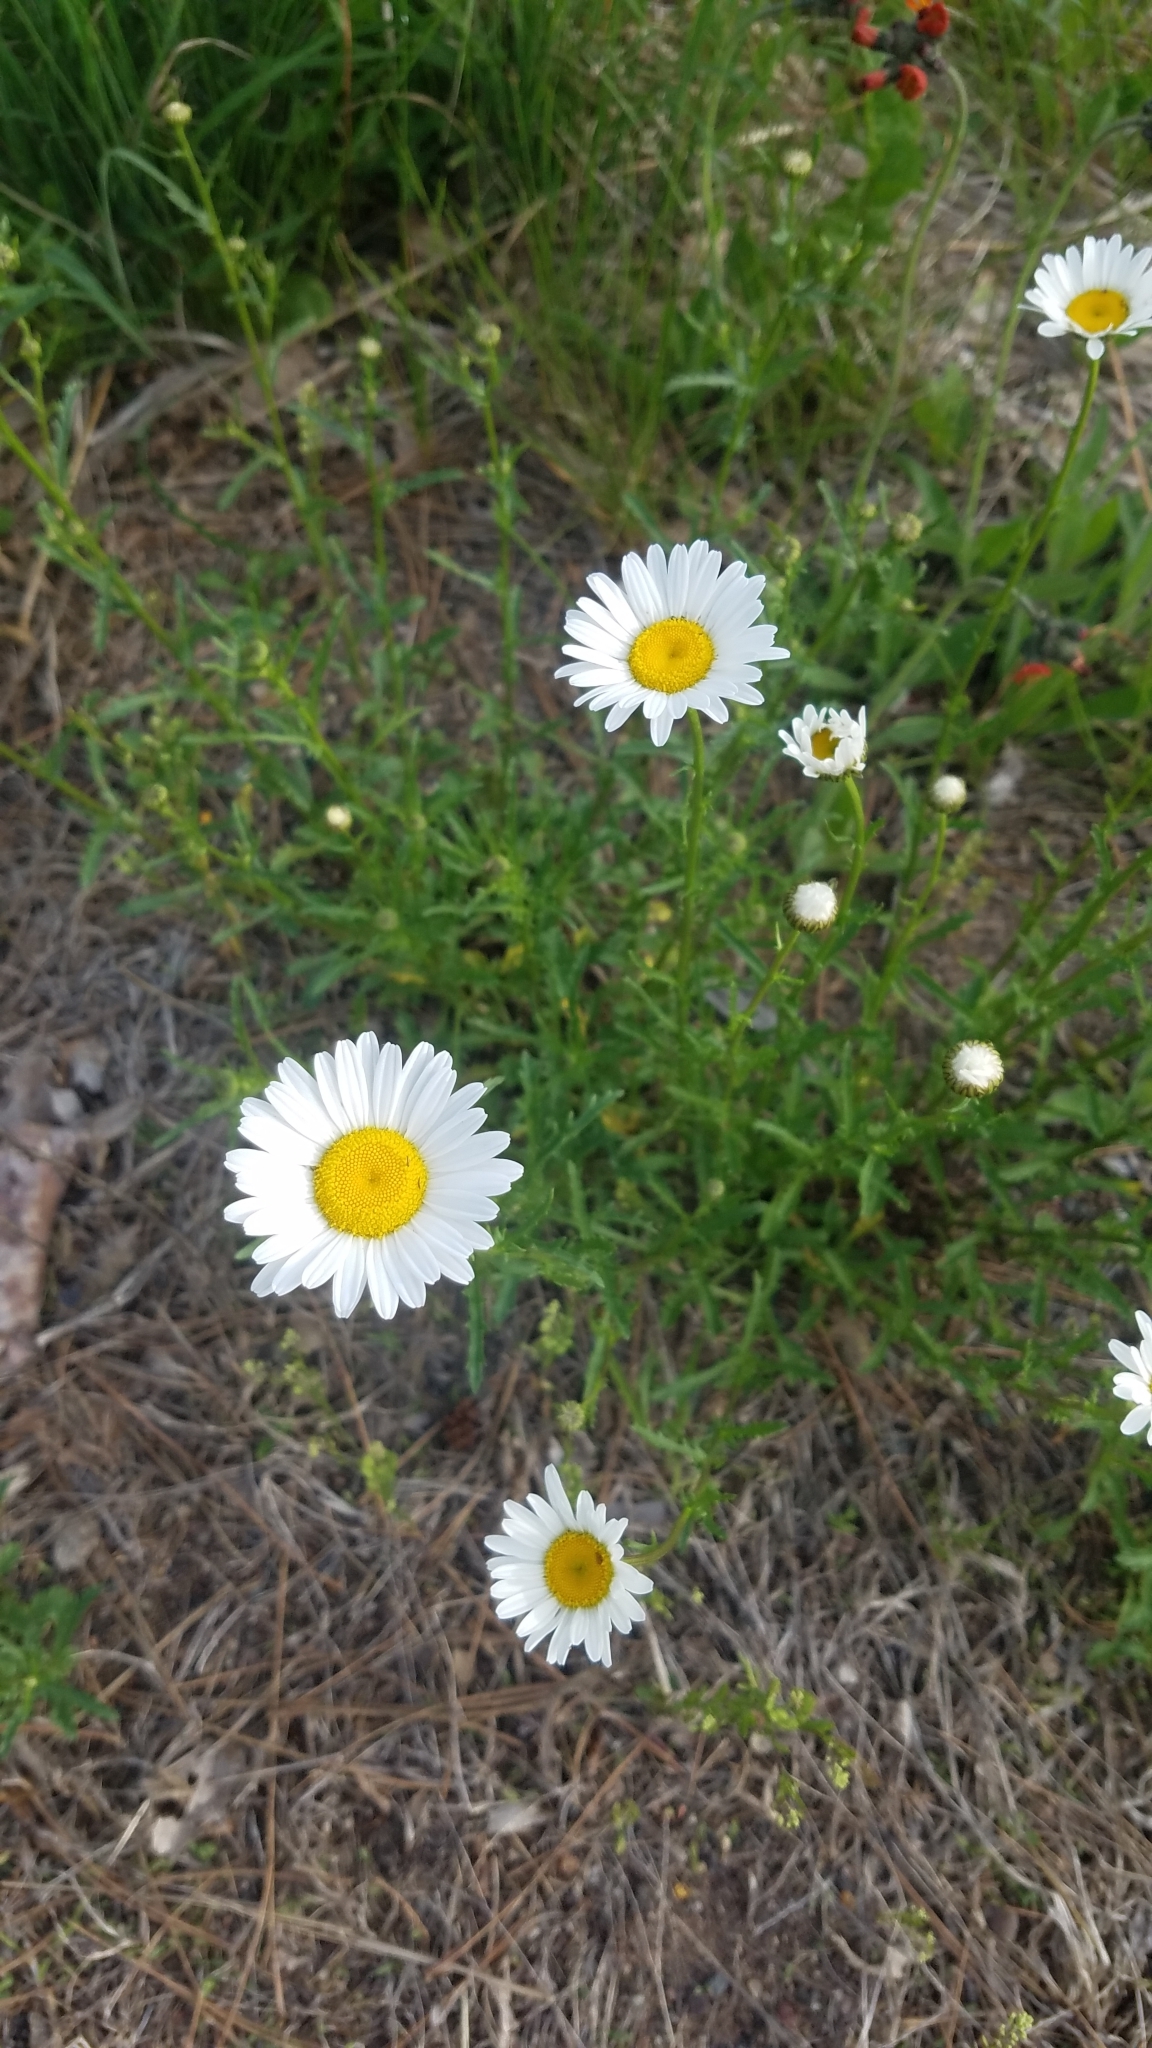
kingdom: Plantae
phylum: Tracheophyta
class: Magnoliopsida
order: Asterales
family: Asteraceae
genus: Leucanthemum
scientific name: Leucanthemum vulgare
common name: Oxeye daisy
